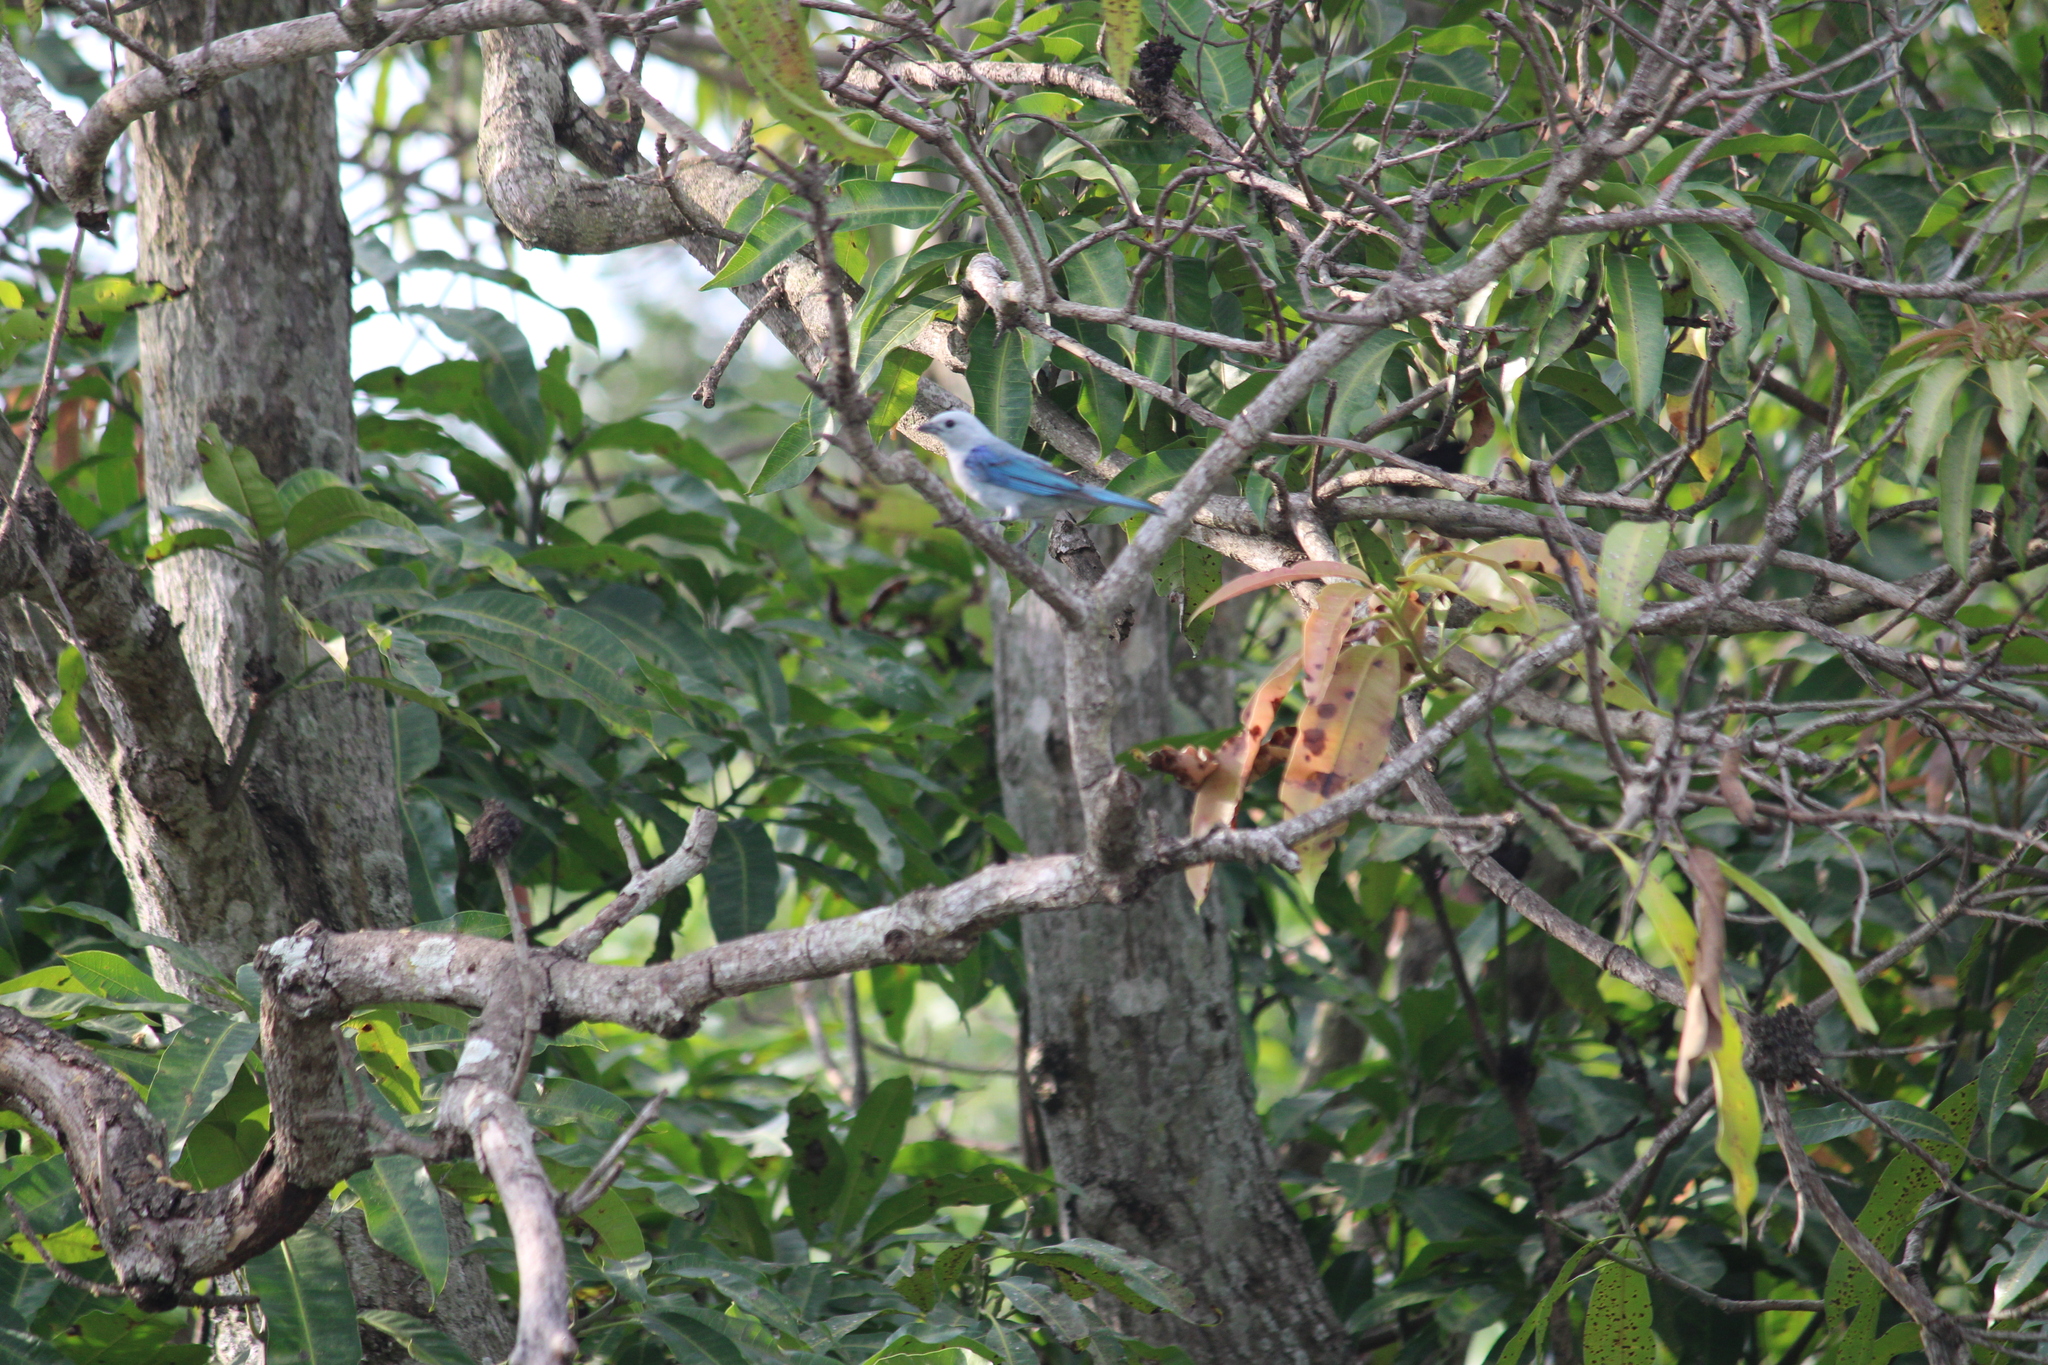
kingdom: Animalia
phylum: Chordata
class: Aves
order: Passeriformes
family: Thraupidae
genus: Thraupis
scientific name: Thraupis episcopus
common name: Blue-grey tanager
